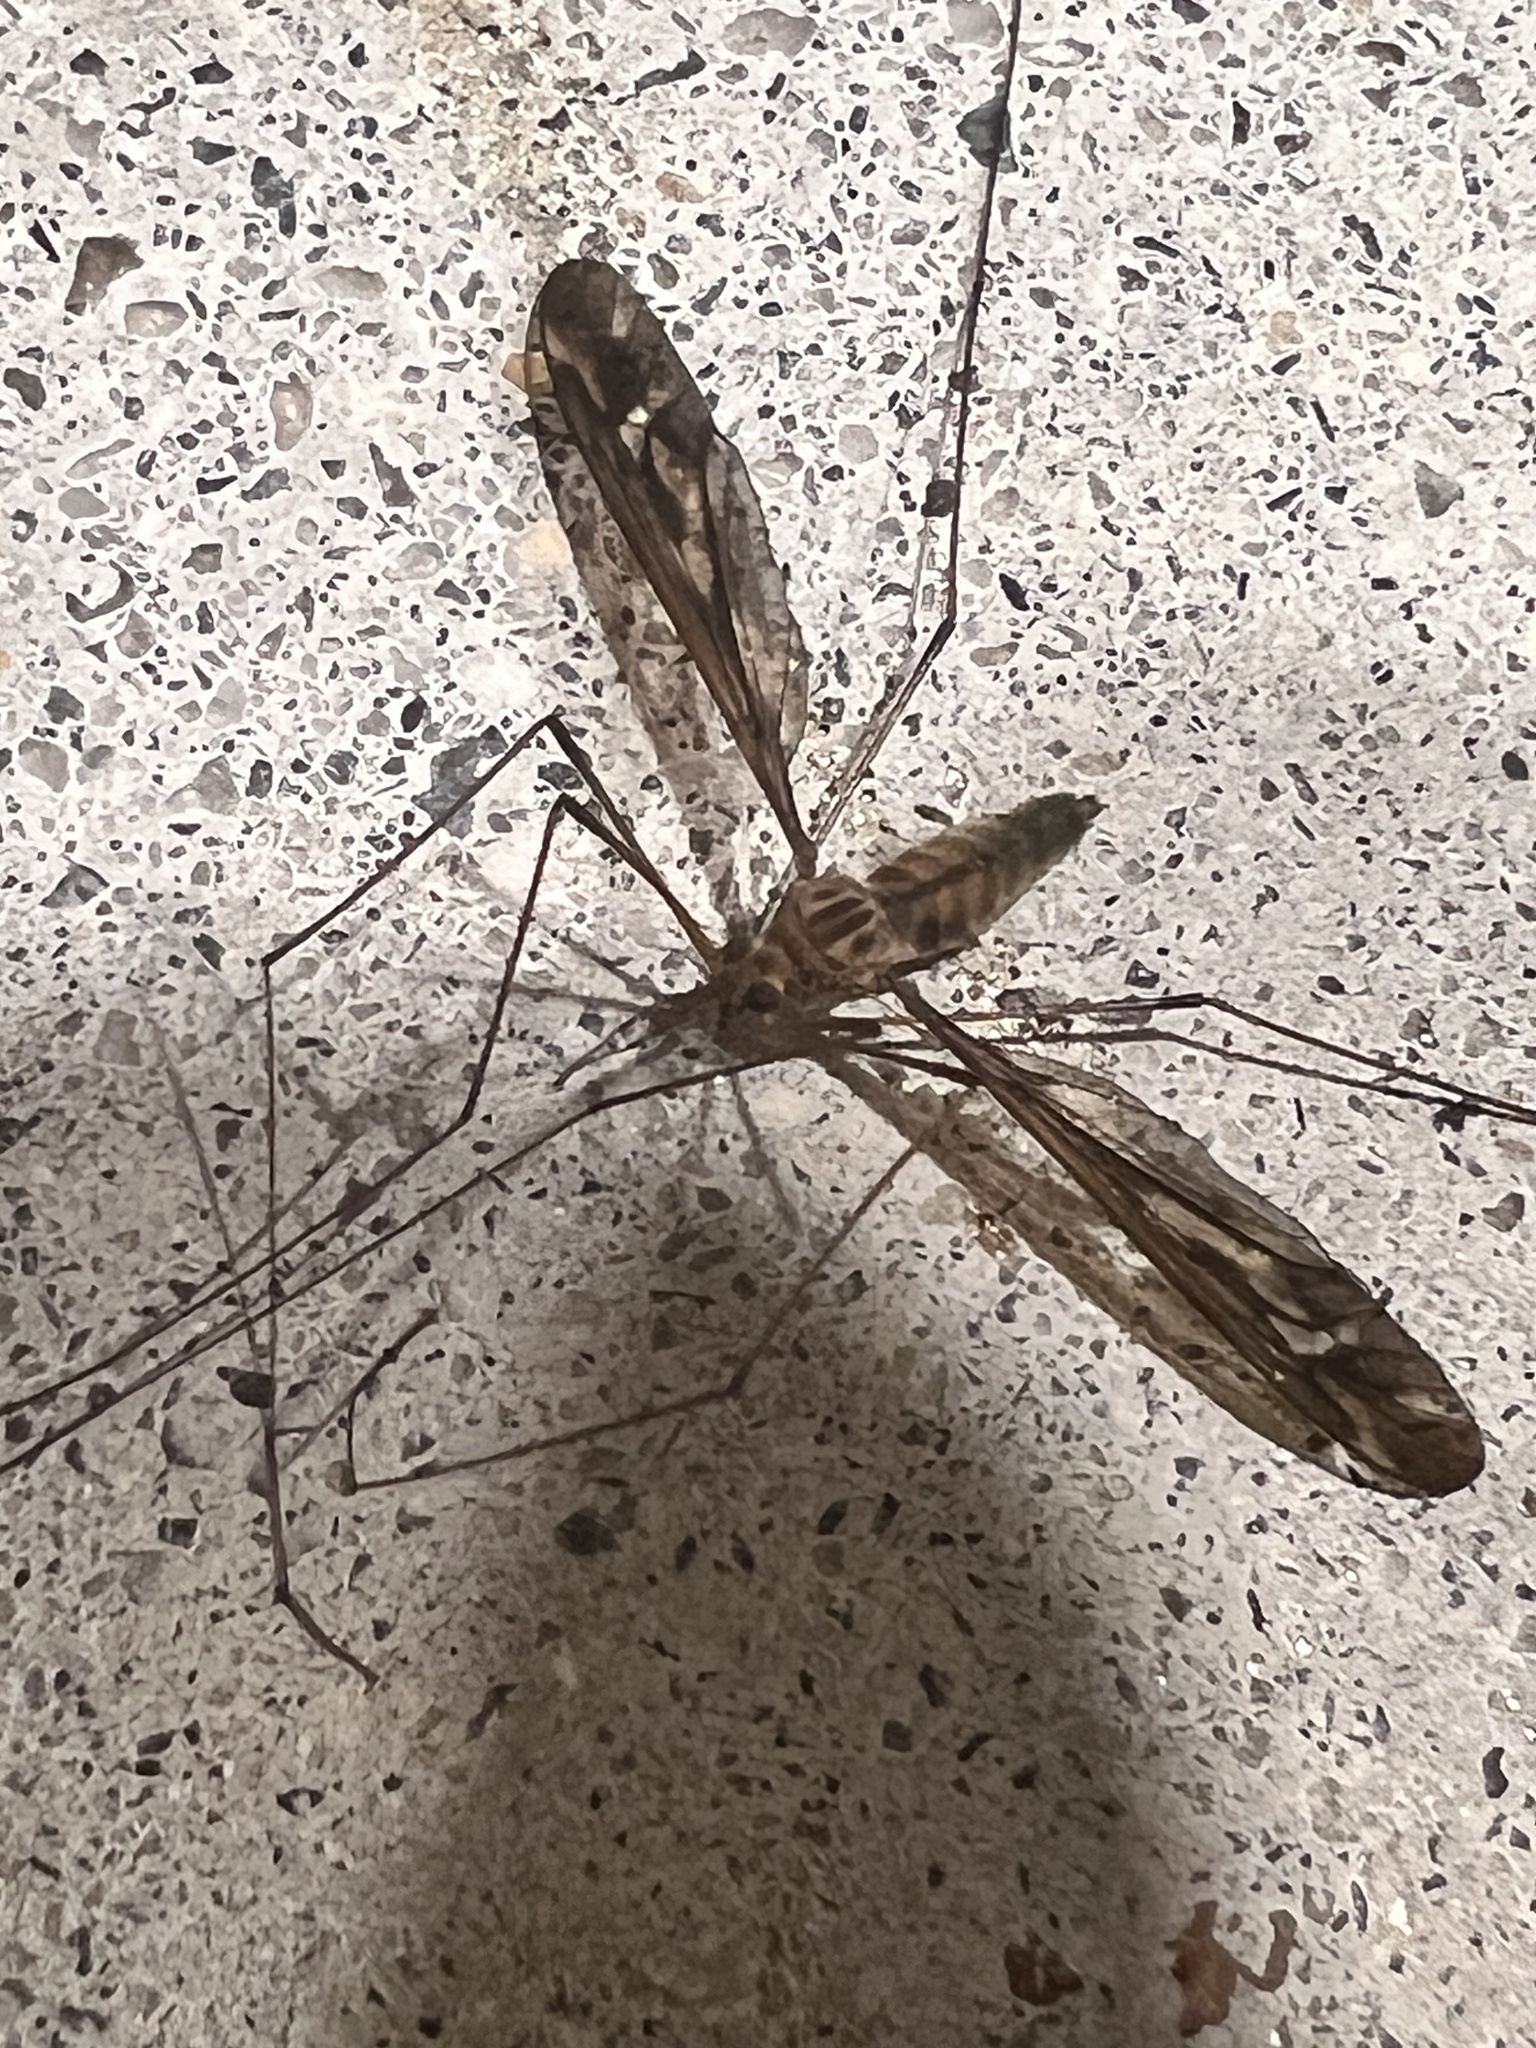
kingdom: Animalia
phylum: Arthropoda
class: Insecta
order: Diptera
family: Tipulidae
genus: Leptotarsus
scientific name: Leptotarsus huttoni
